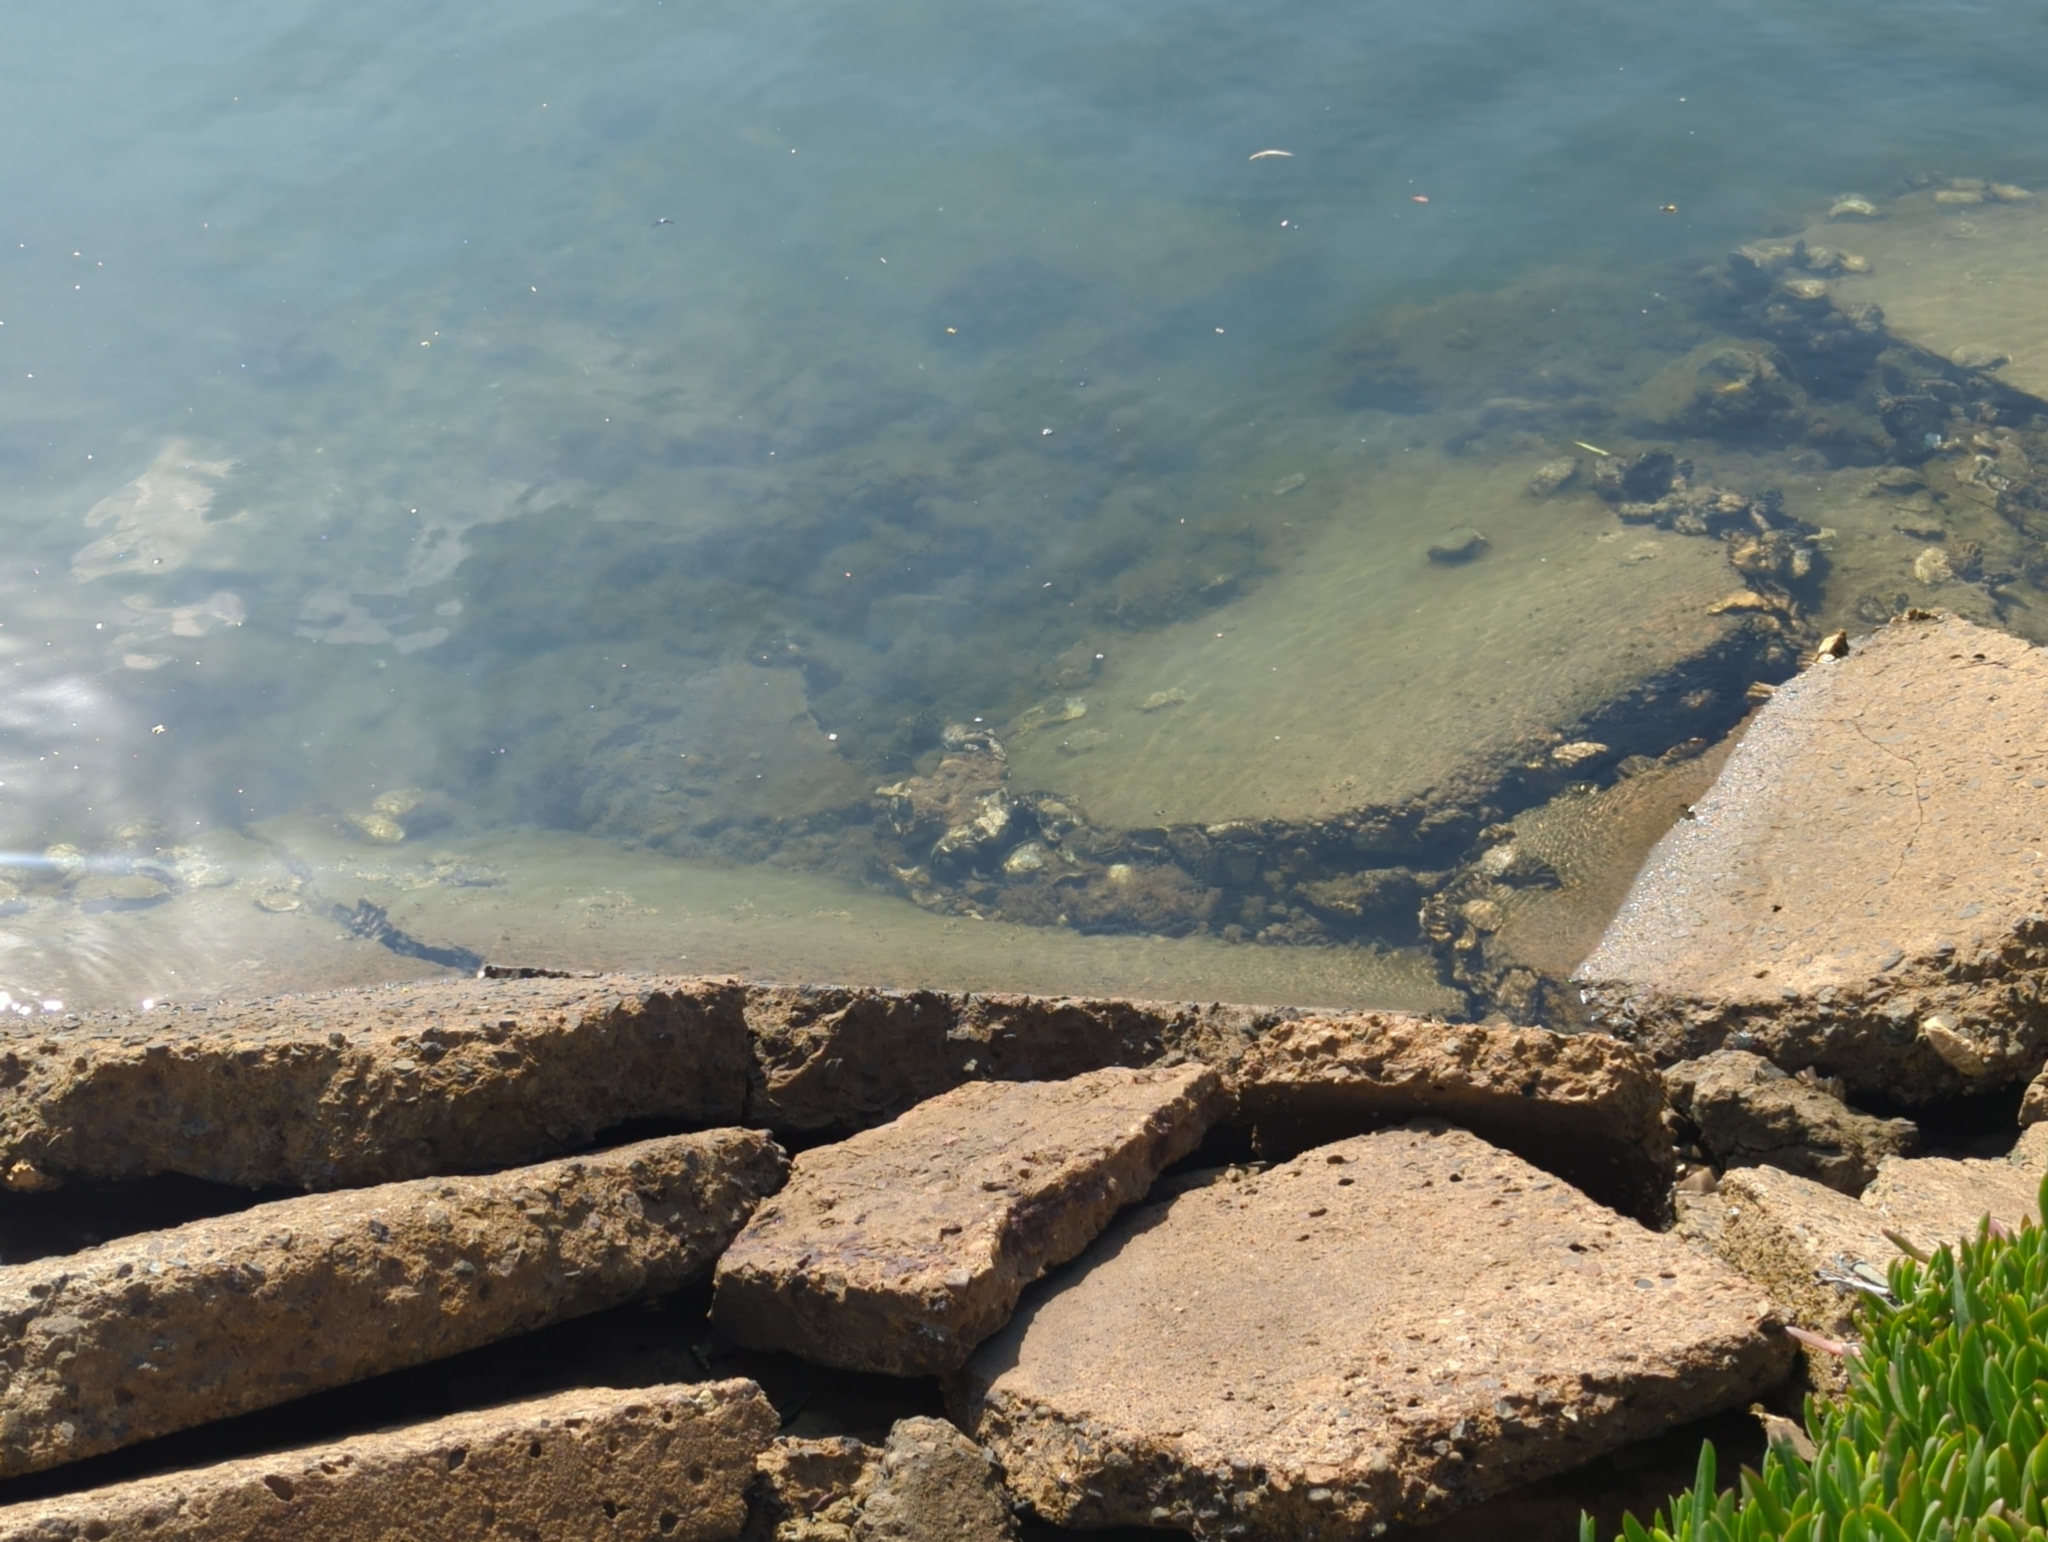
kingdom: Animalia
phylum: Mollusca
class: Bivalvia
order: Ostreida
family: Ostreidae
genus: Magallana
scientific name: Magallana gigas
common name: Pacific oyster
